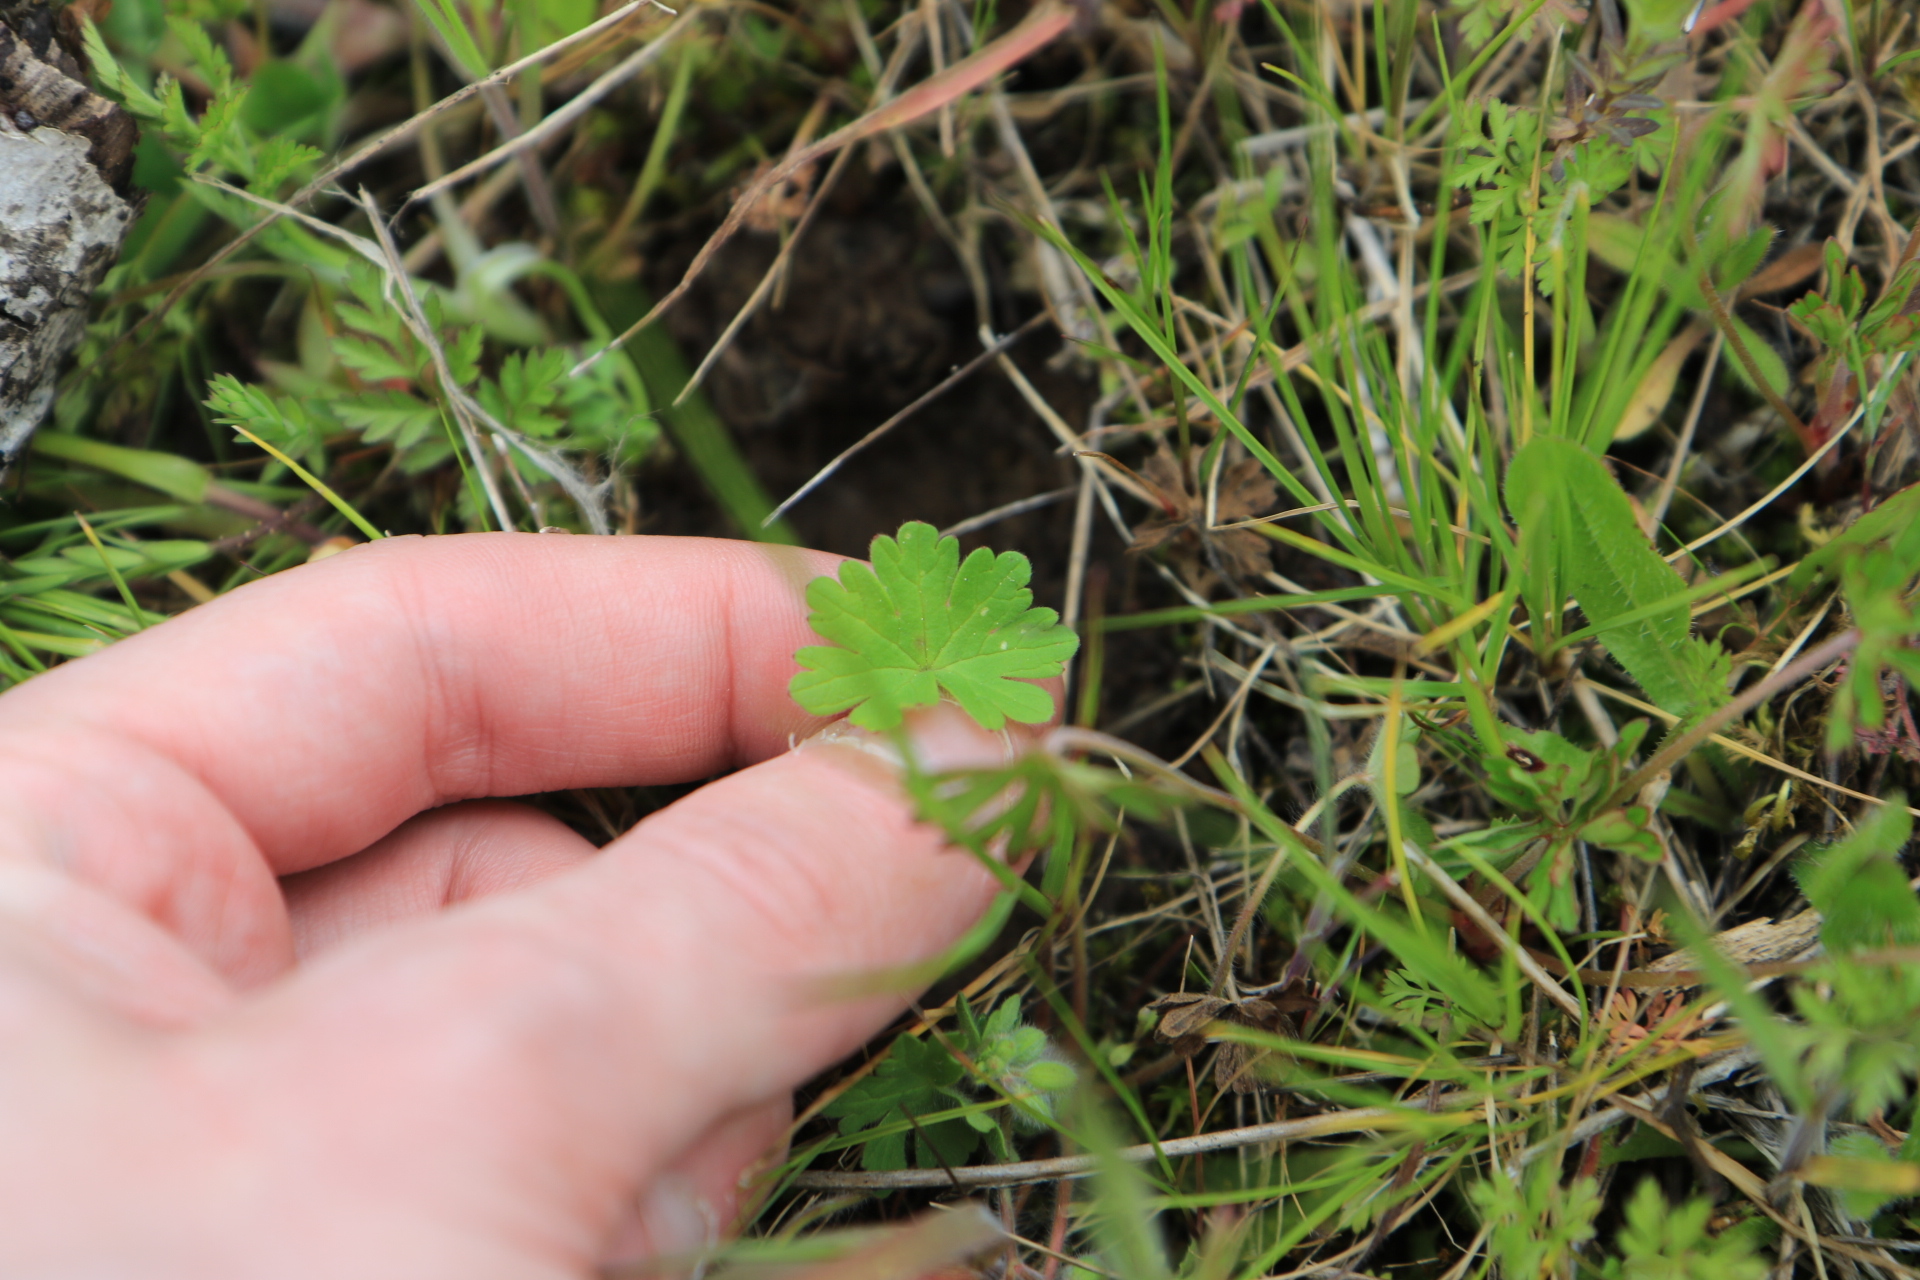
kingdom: Plantae
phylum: Tracheophyta
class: Magnoliopsida
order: Geraniales
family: Geraniaceae
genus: Geranium
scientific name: Geranium molle
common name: Dove's-foot crane's-bill
